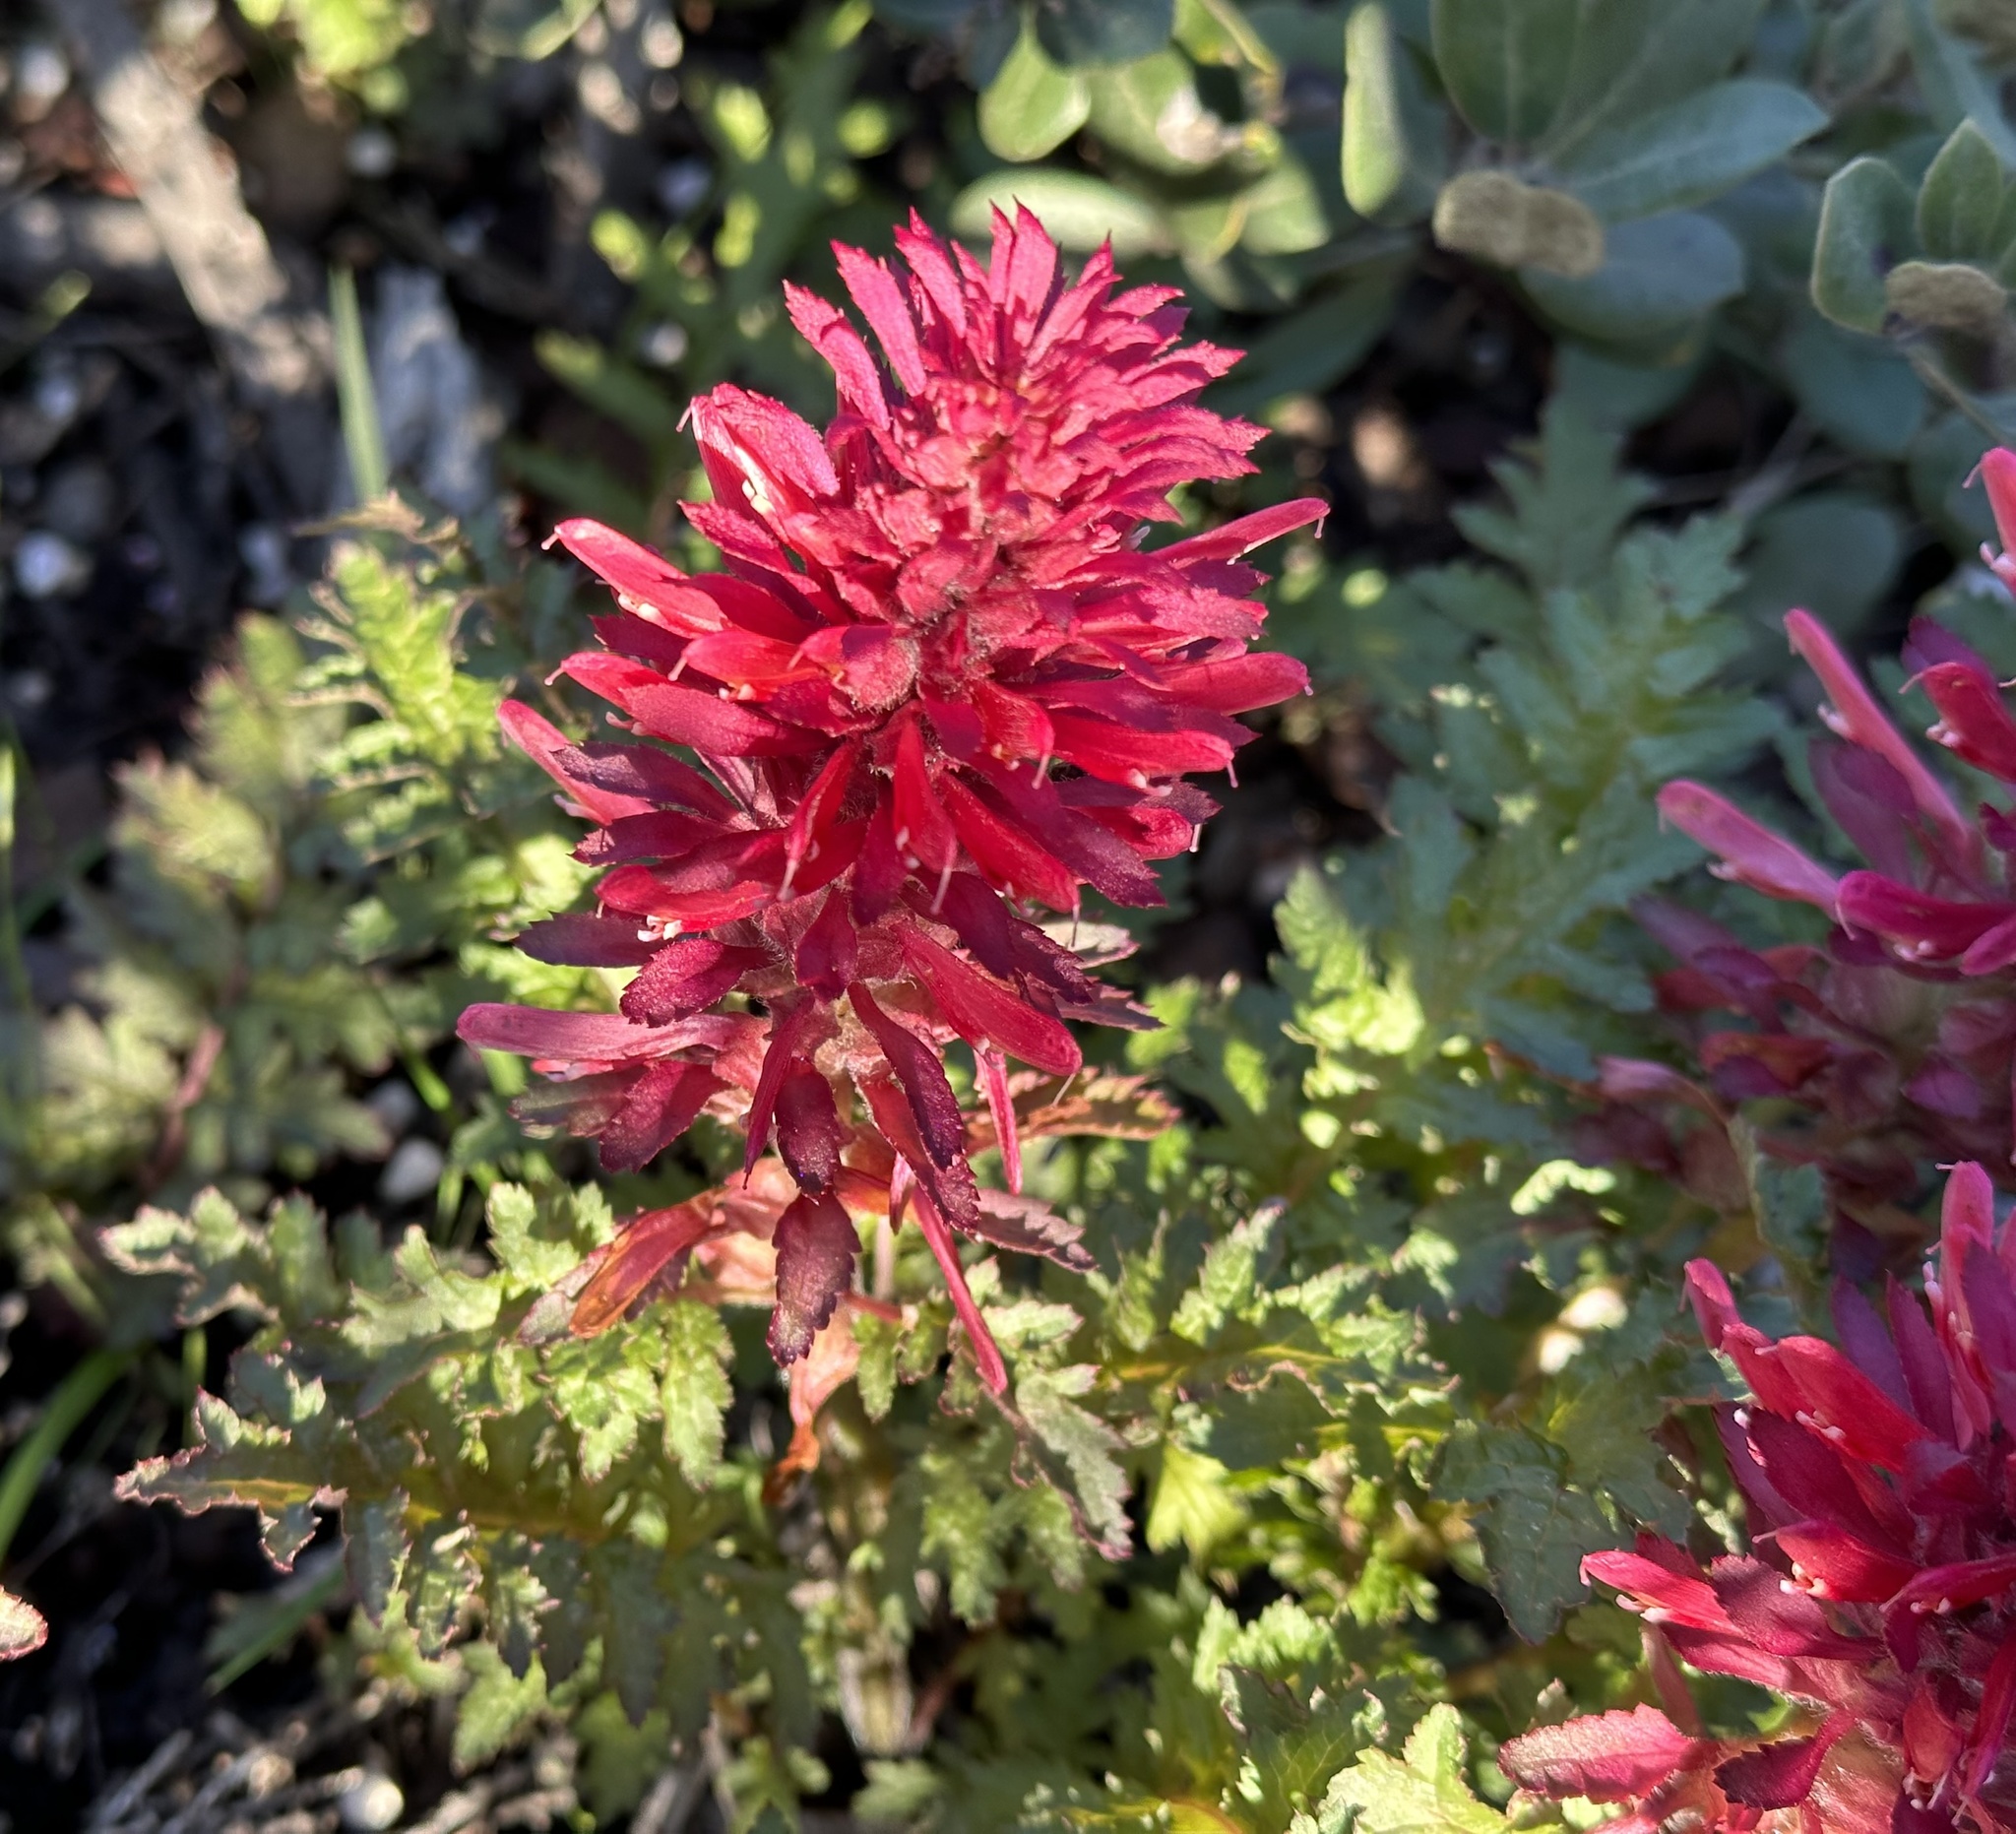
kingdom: Plantae
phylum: Tracheophyta
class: Magnoliopsida
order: Lamiales
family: Orobanchaceae
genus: Pedicularis
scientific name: Pedicularis densiflora
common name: Indian warrior
